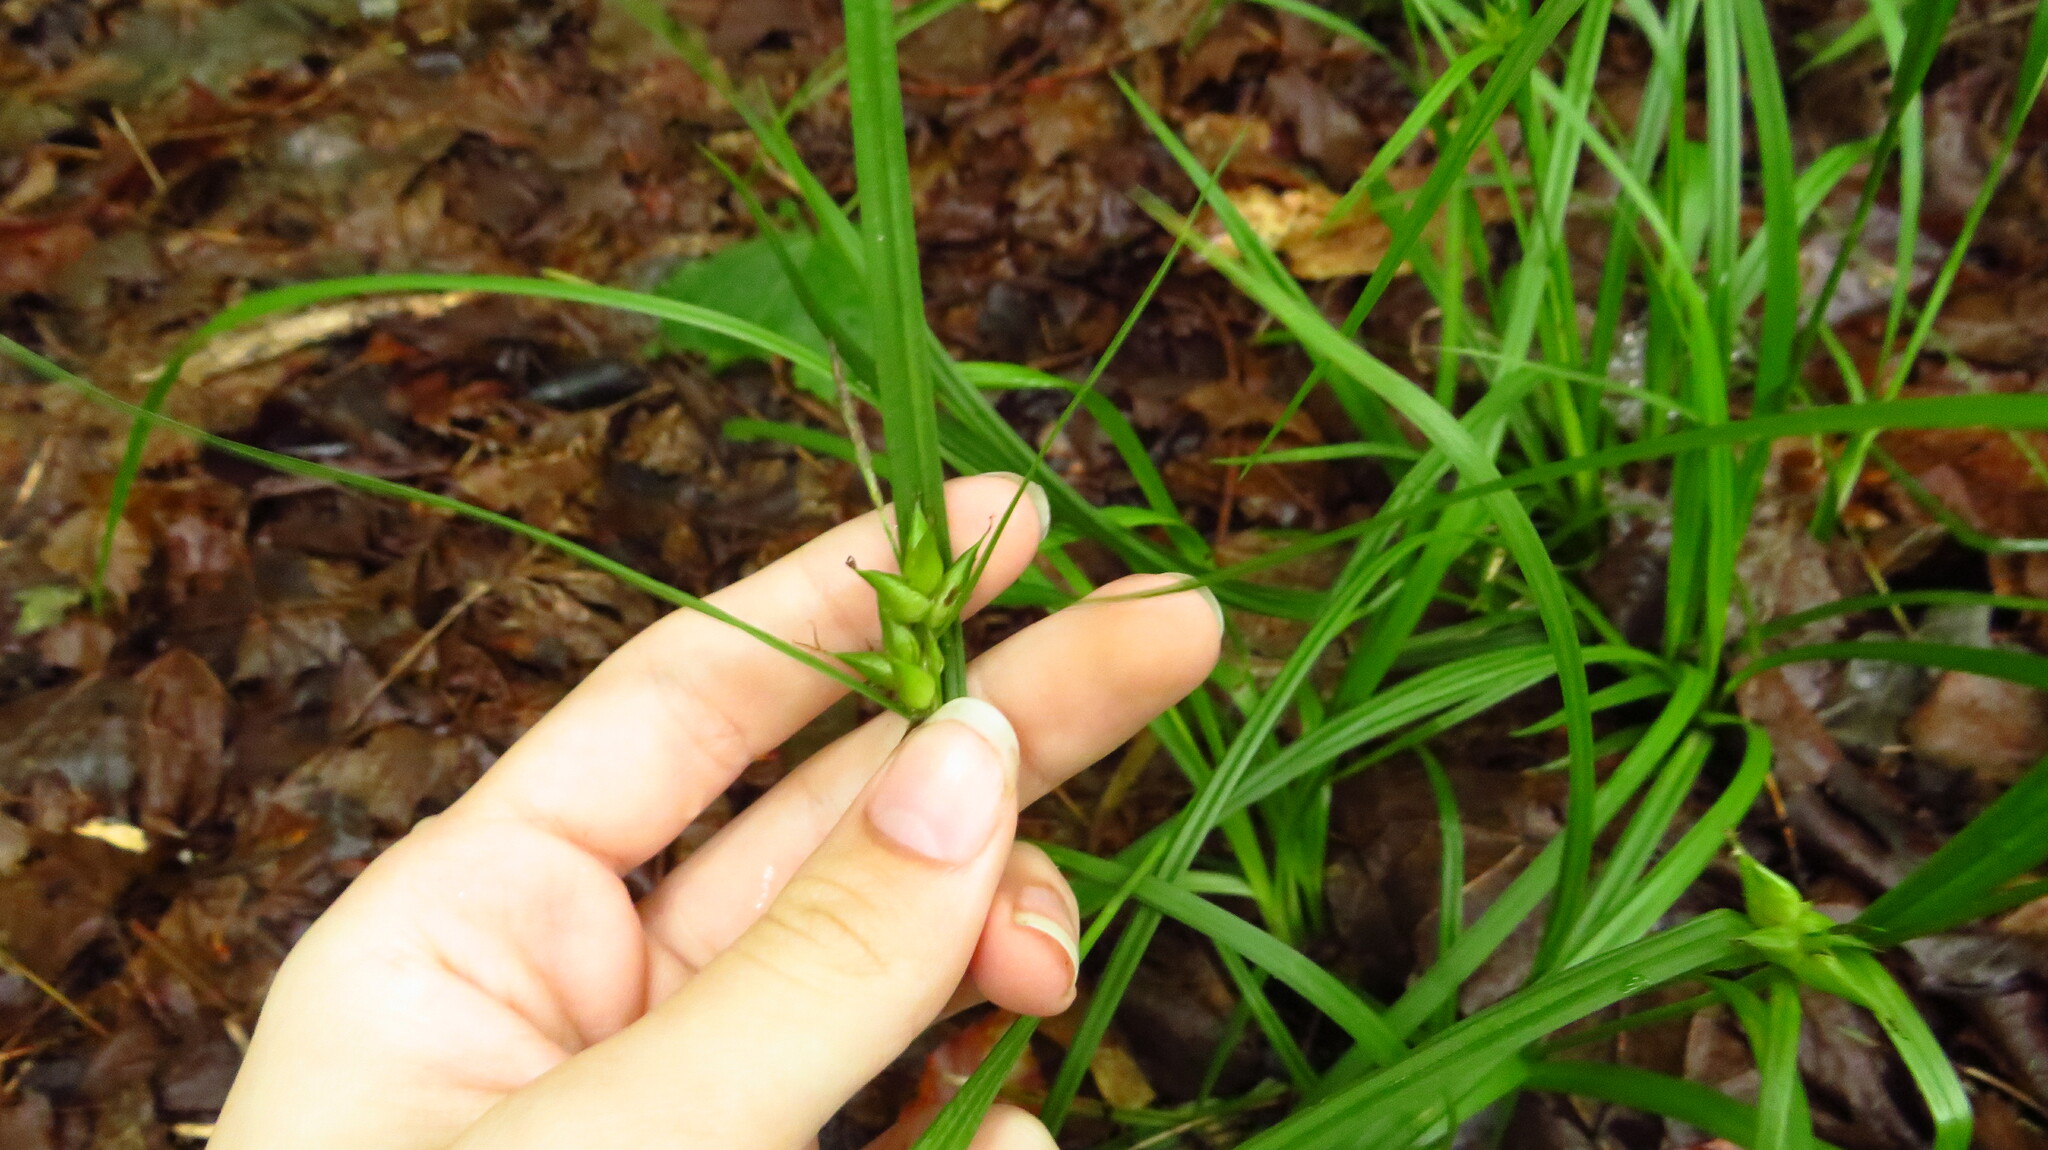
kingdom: Plantae
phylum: Tracheophyta
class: Liliopsida
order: Poales
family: Cyperaceae
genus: Carex
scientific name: Carex intumescens
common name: Greater bladder sedge
